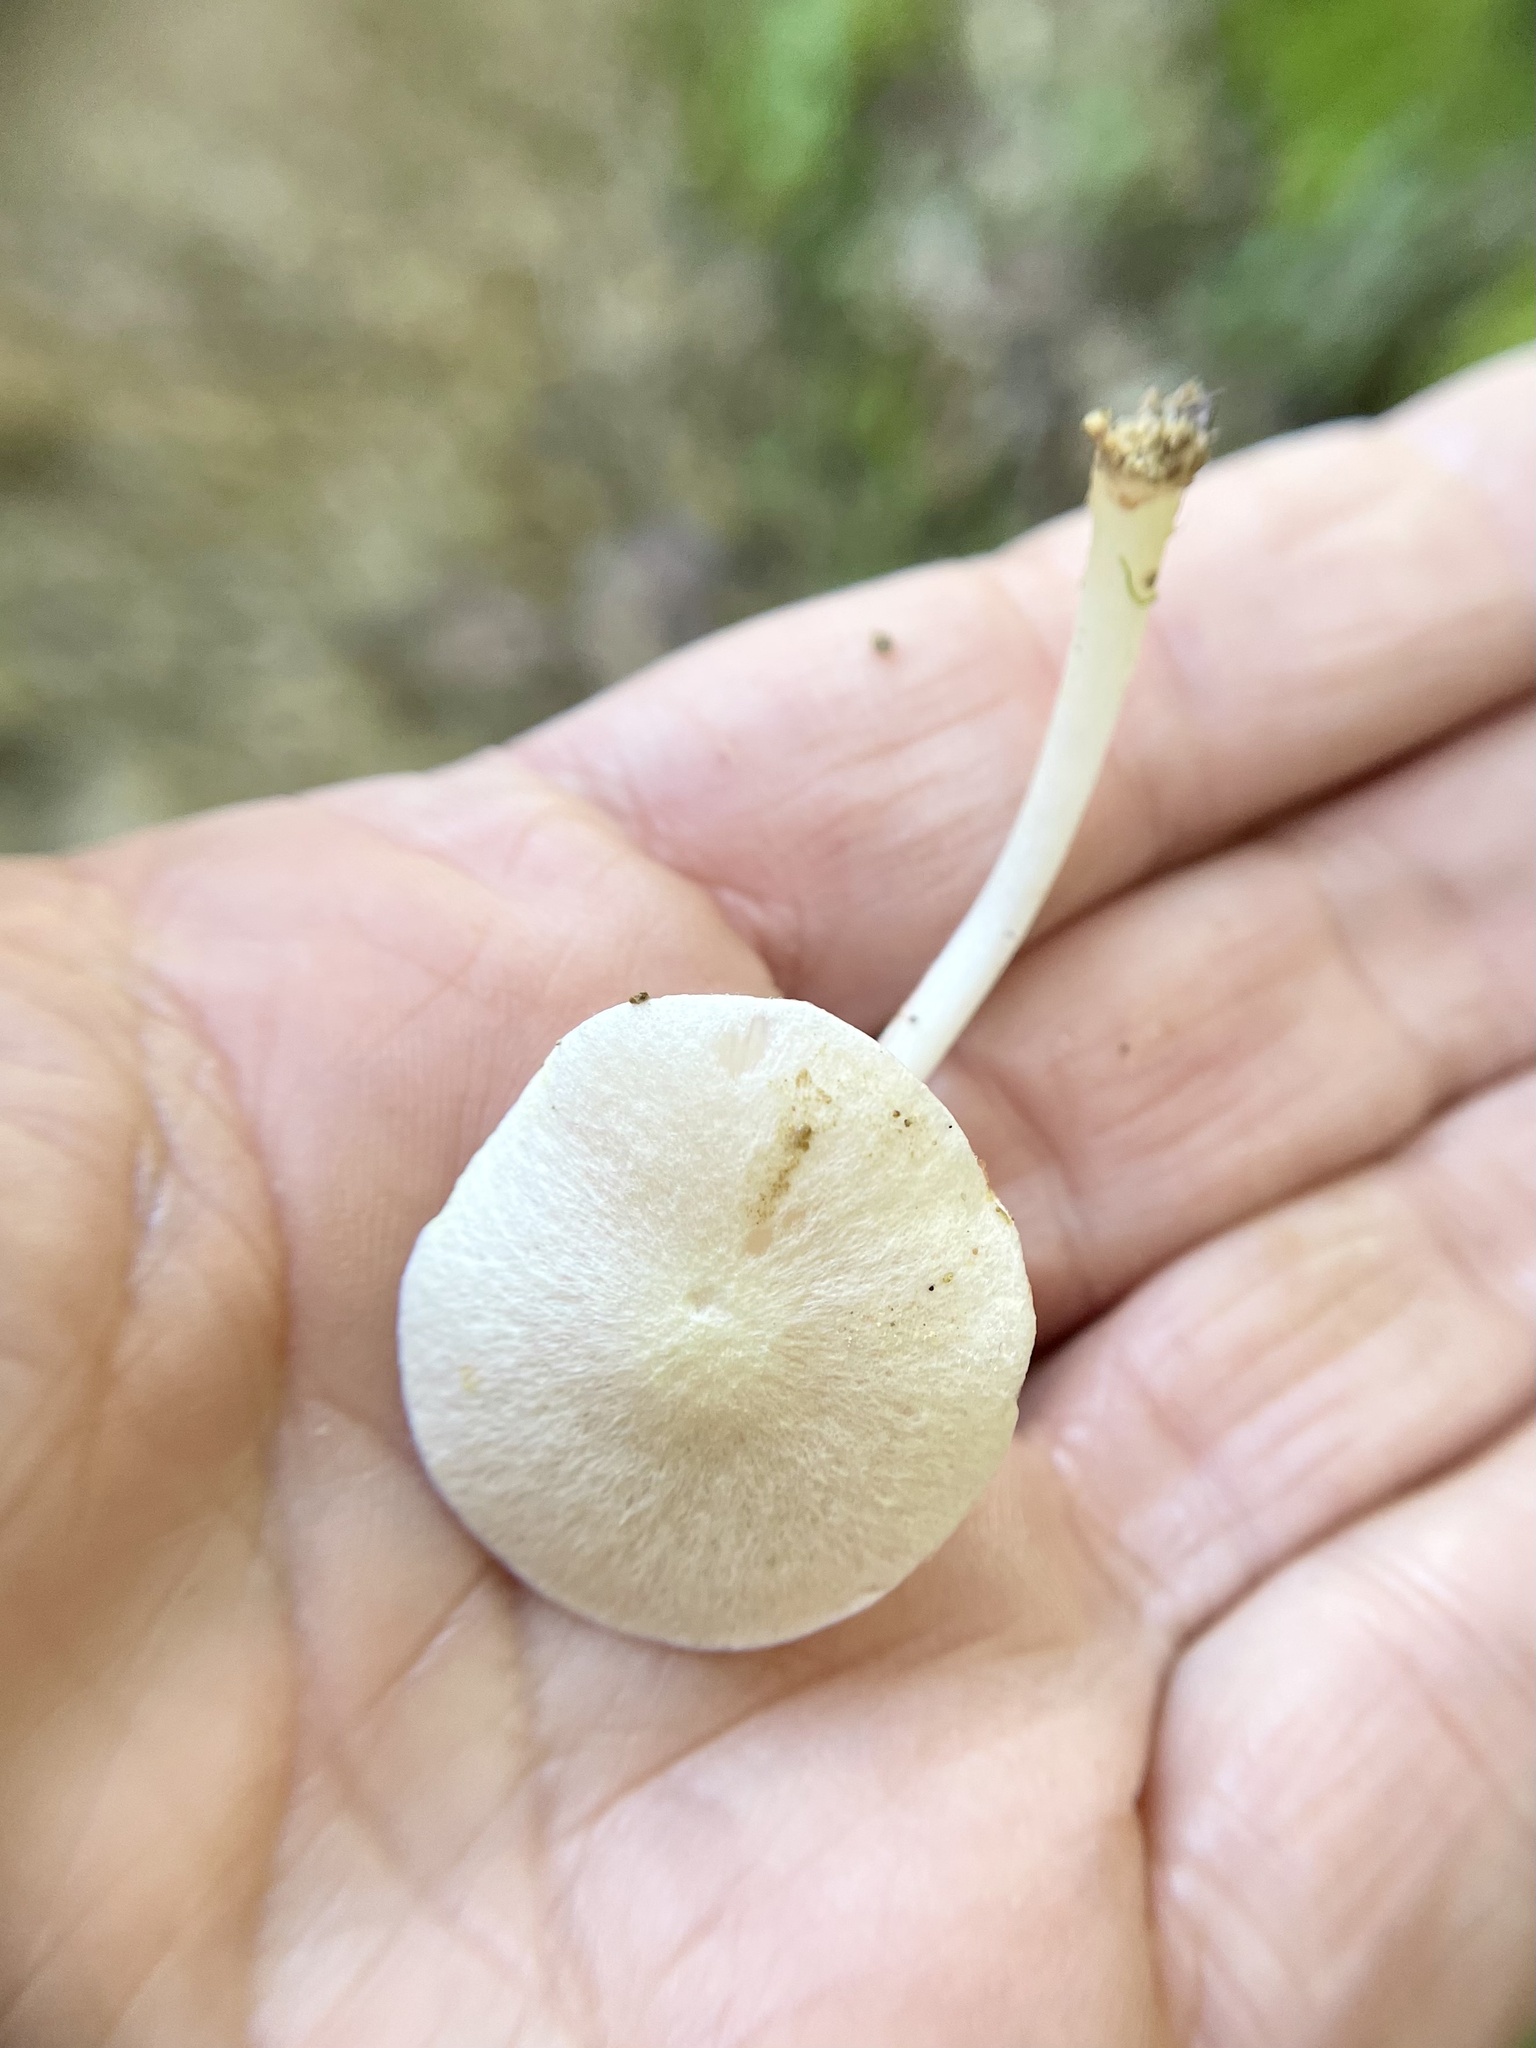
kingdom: Fungi
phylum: Basidiomycota
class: Agaricomycetes
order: Agaricales
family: Entolomataceae
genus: Entoloma
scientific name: Entoloma adnatifolium
